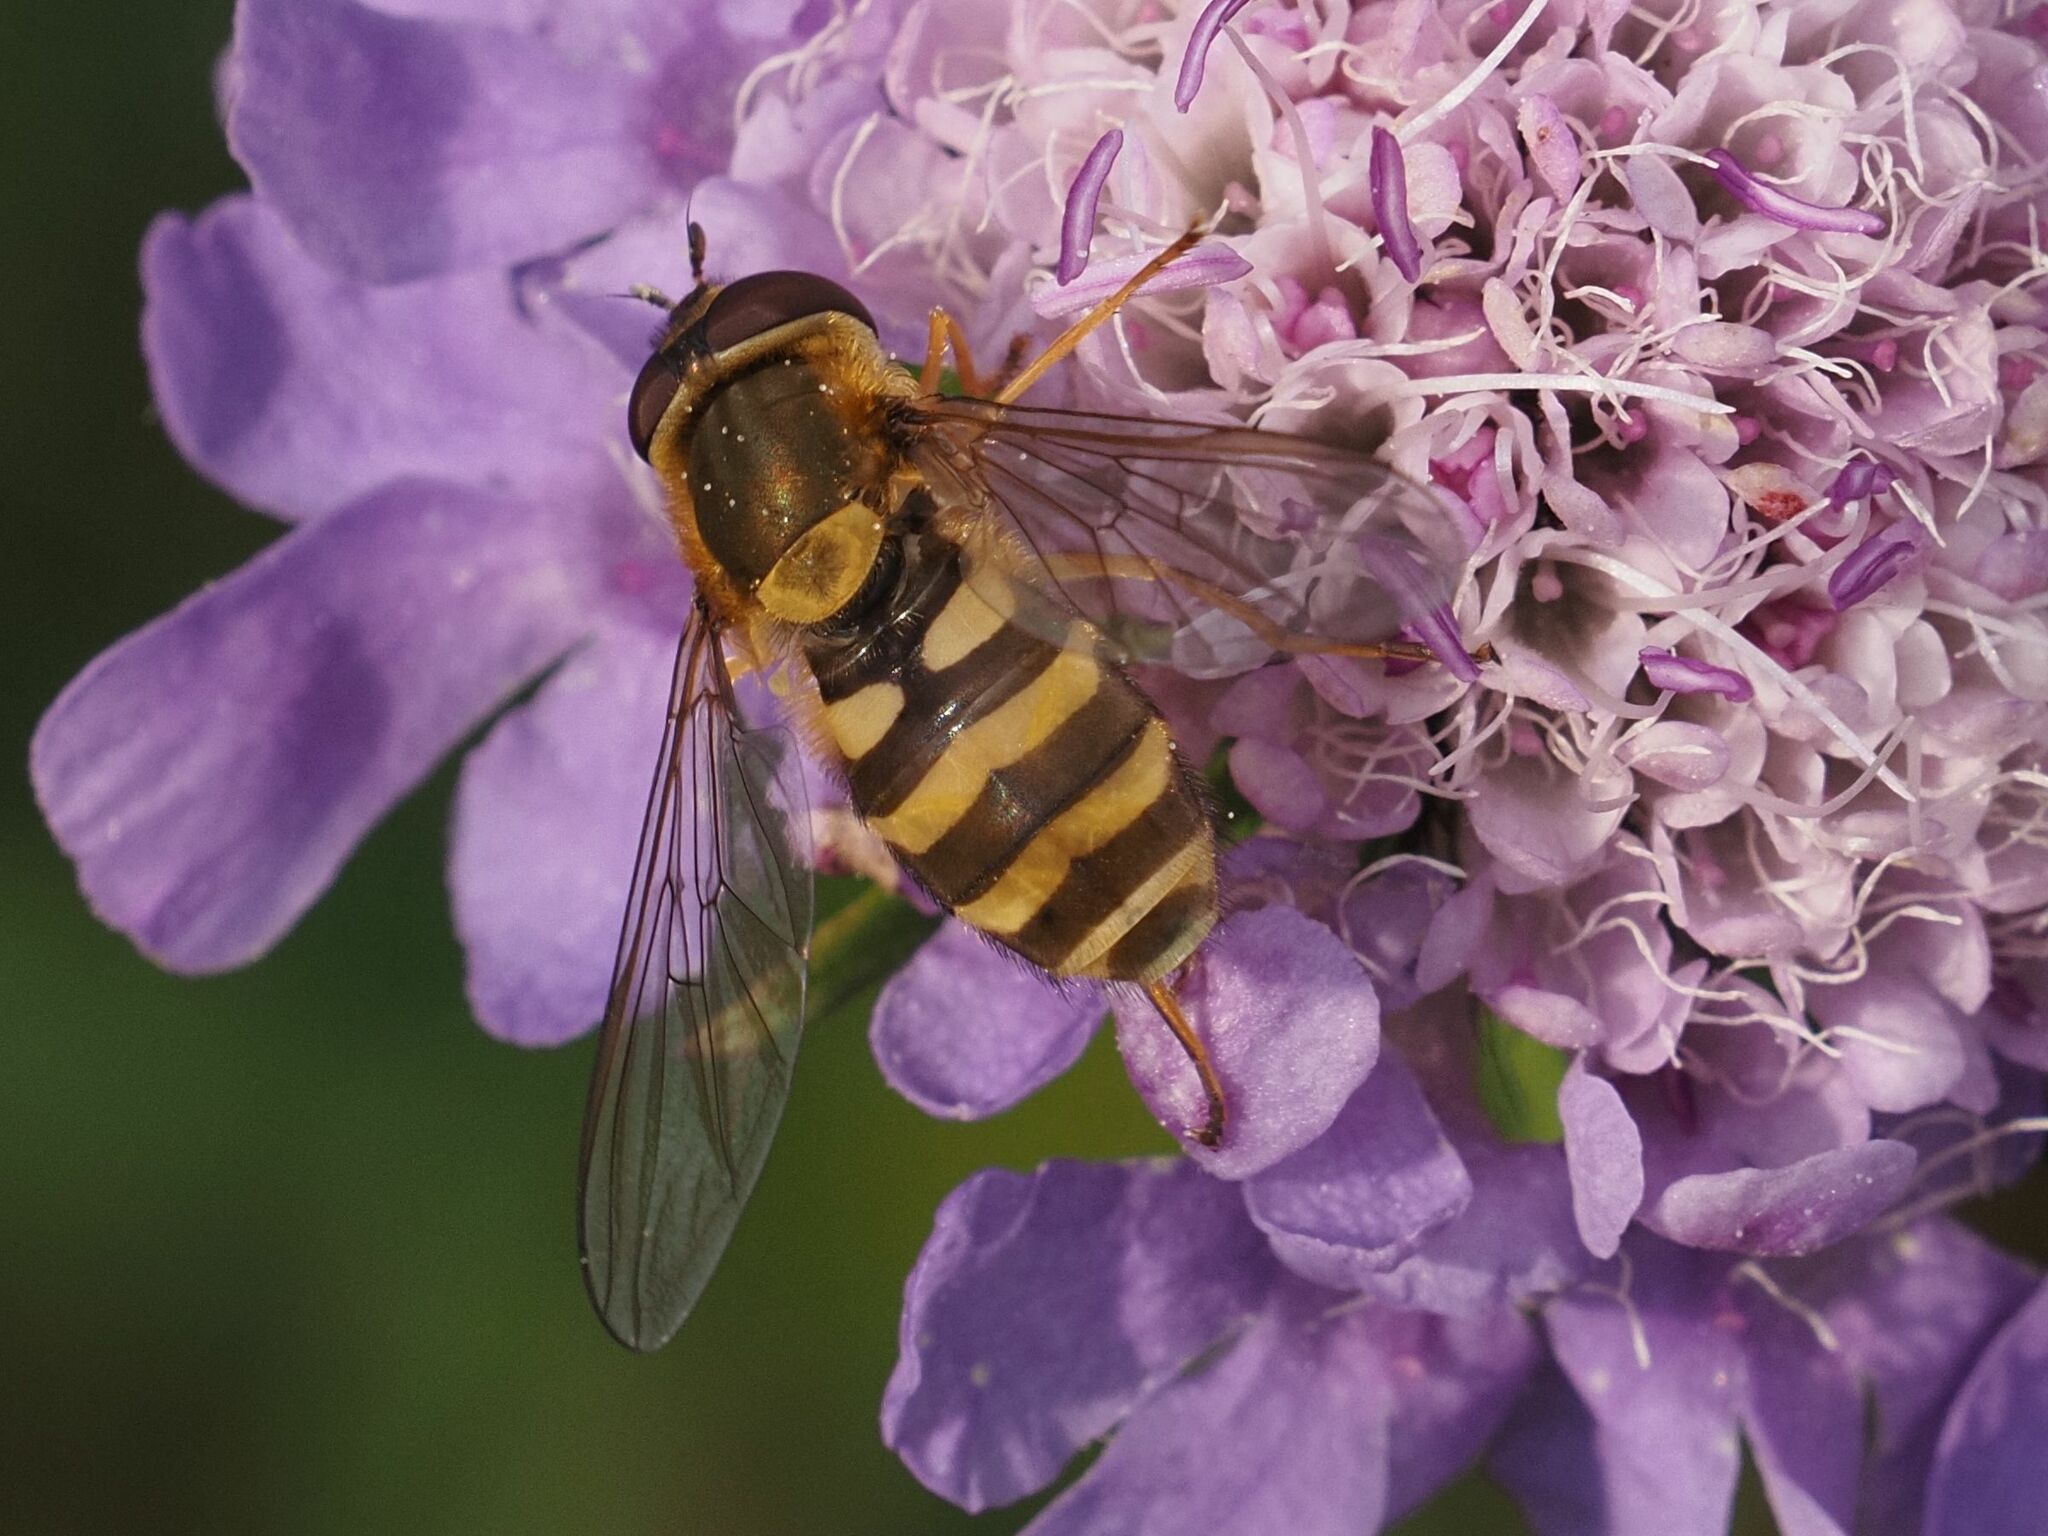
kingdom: Animalia
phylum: Arthropoda
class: Insecta
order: Diptera
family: Syrphidae
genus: Syrphus
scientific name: Syrphus
